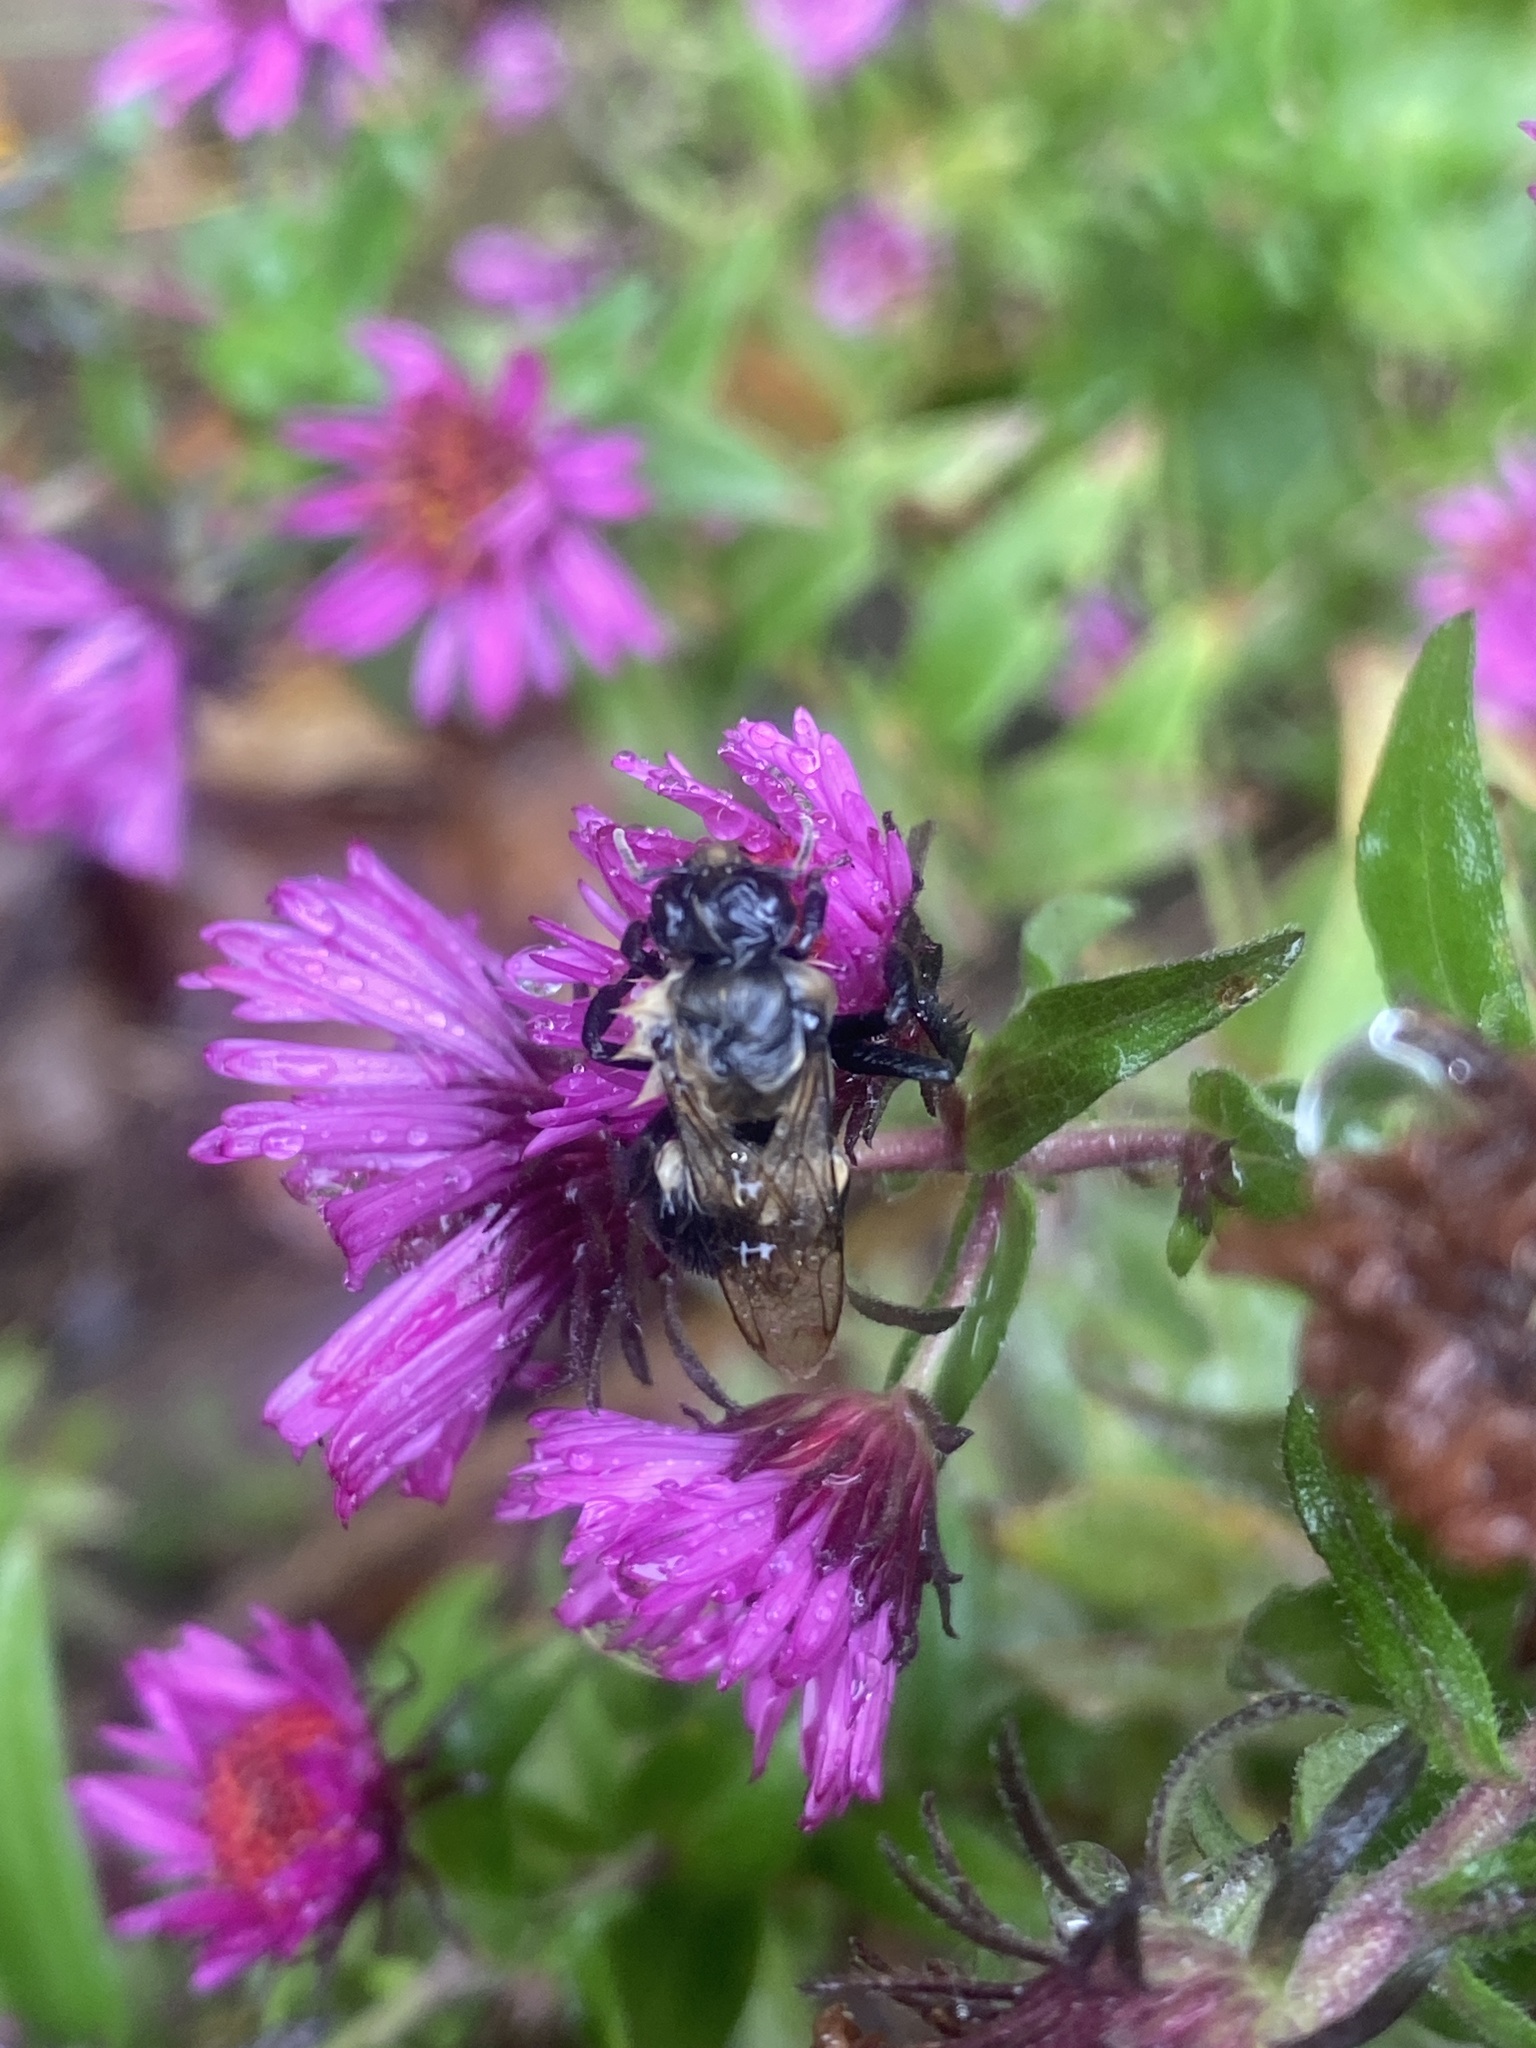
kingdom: Animalia
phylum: Arthropoda
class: Insecta
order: Hymenoptera
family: Apidae
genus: Bombus
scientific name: Bombus impatiens
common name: Common eastern bumble bee
